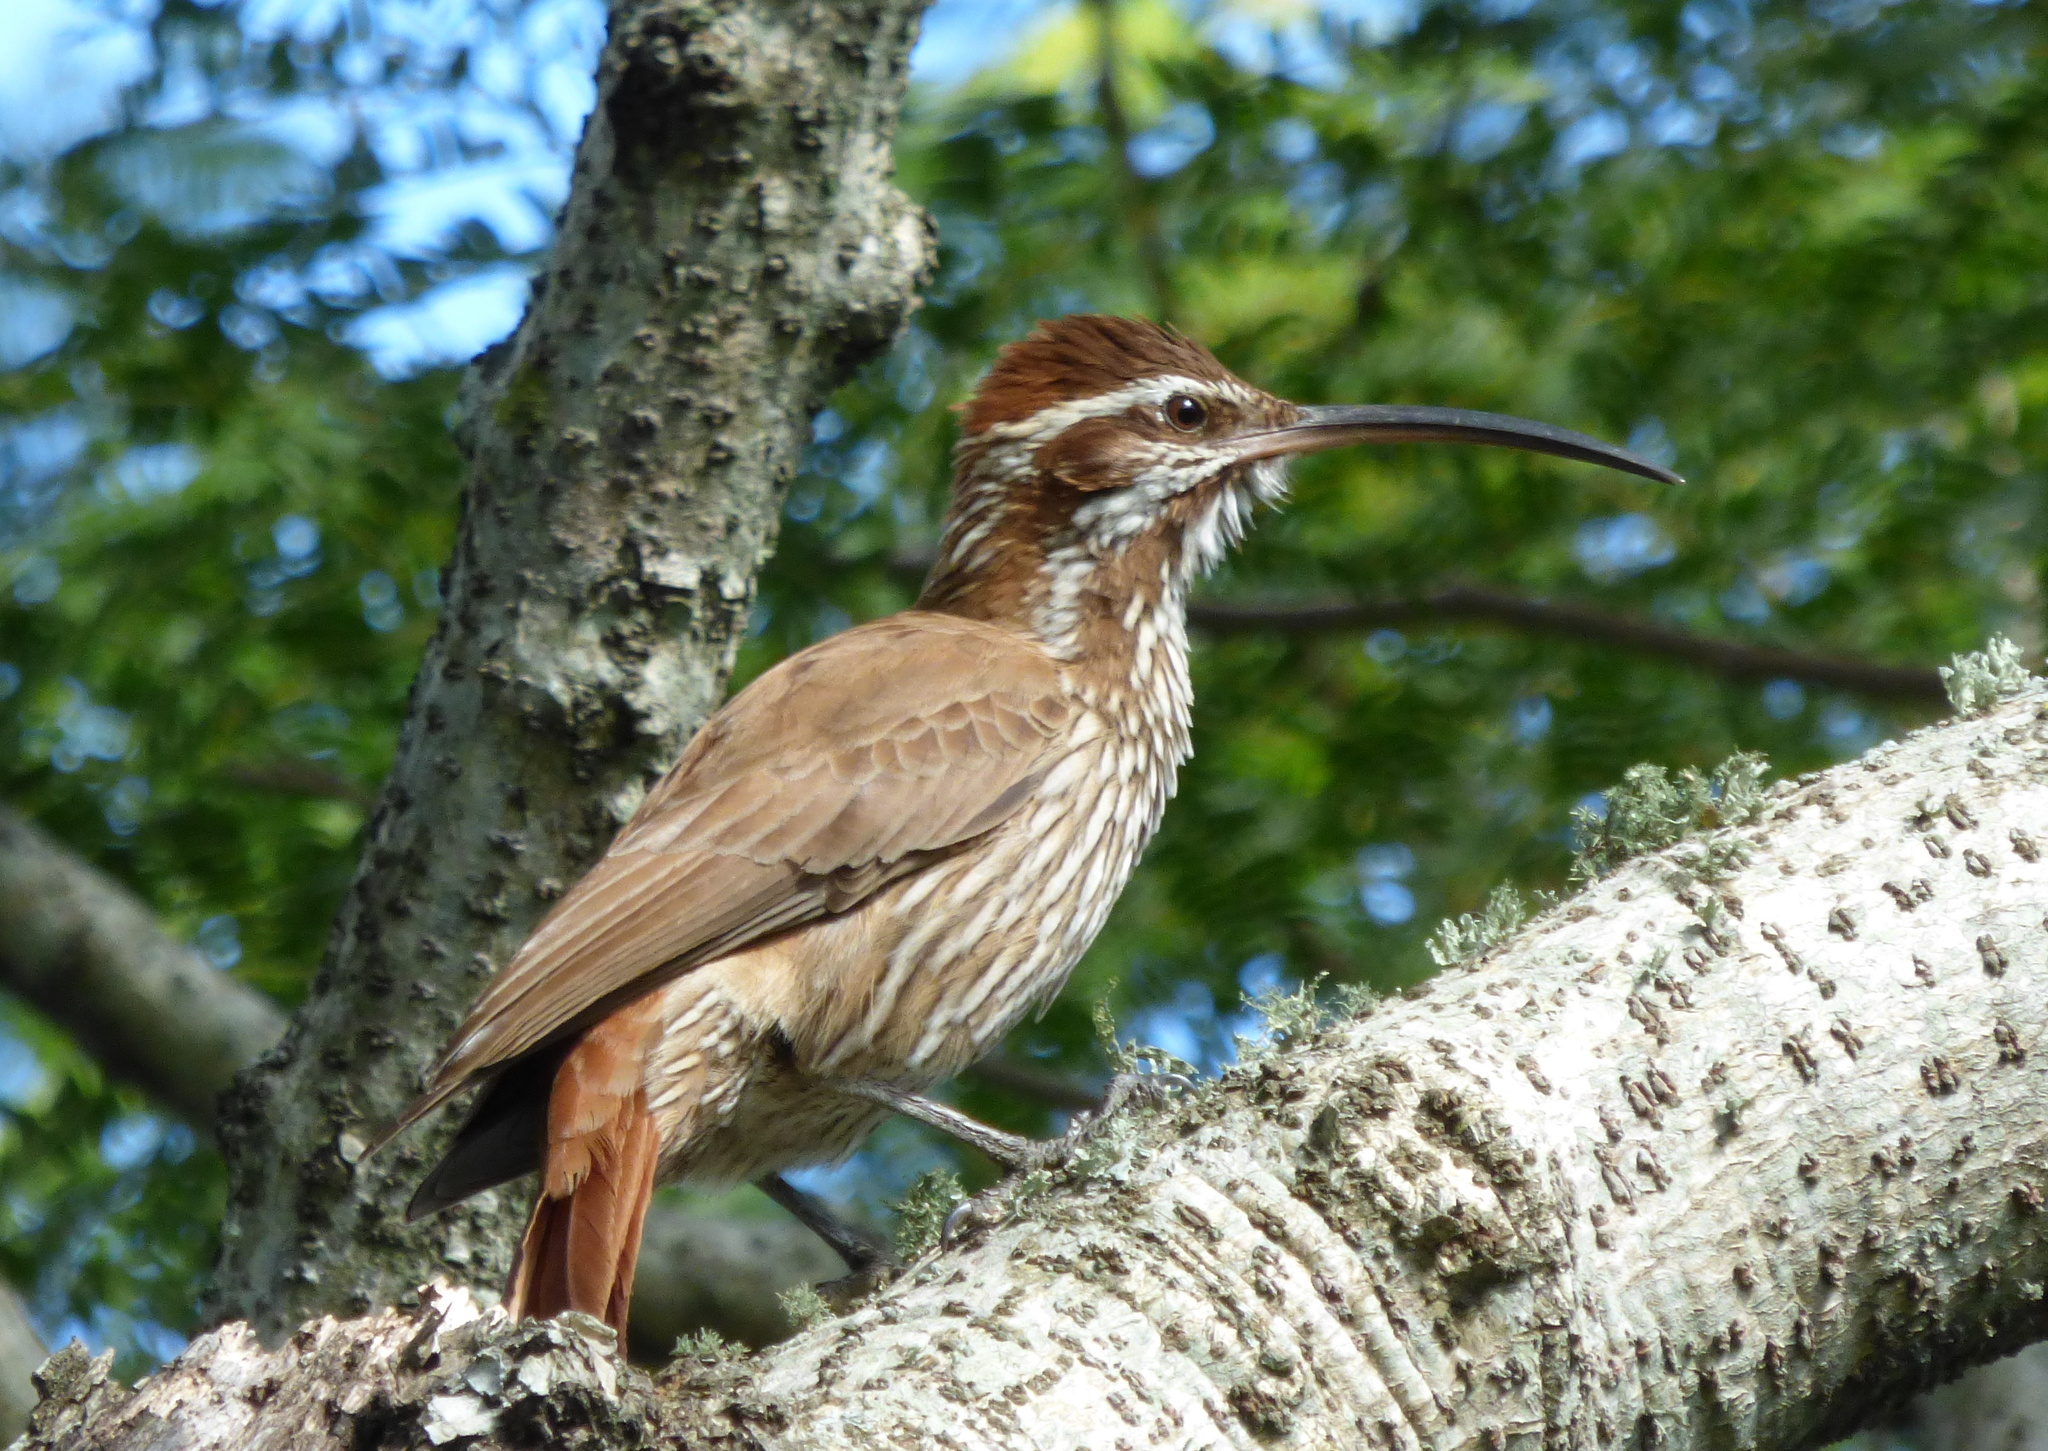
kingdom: Animalia
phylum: Chordata
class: Aves
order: Passeriformes
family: Furnariidae
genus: Drymornis
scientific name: Drymornis bridgesii
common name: Scimitar-billed woodcreeper
